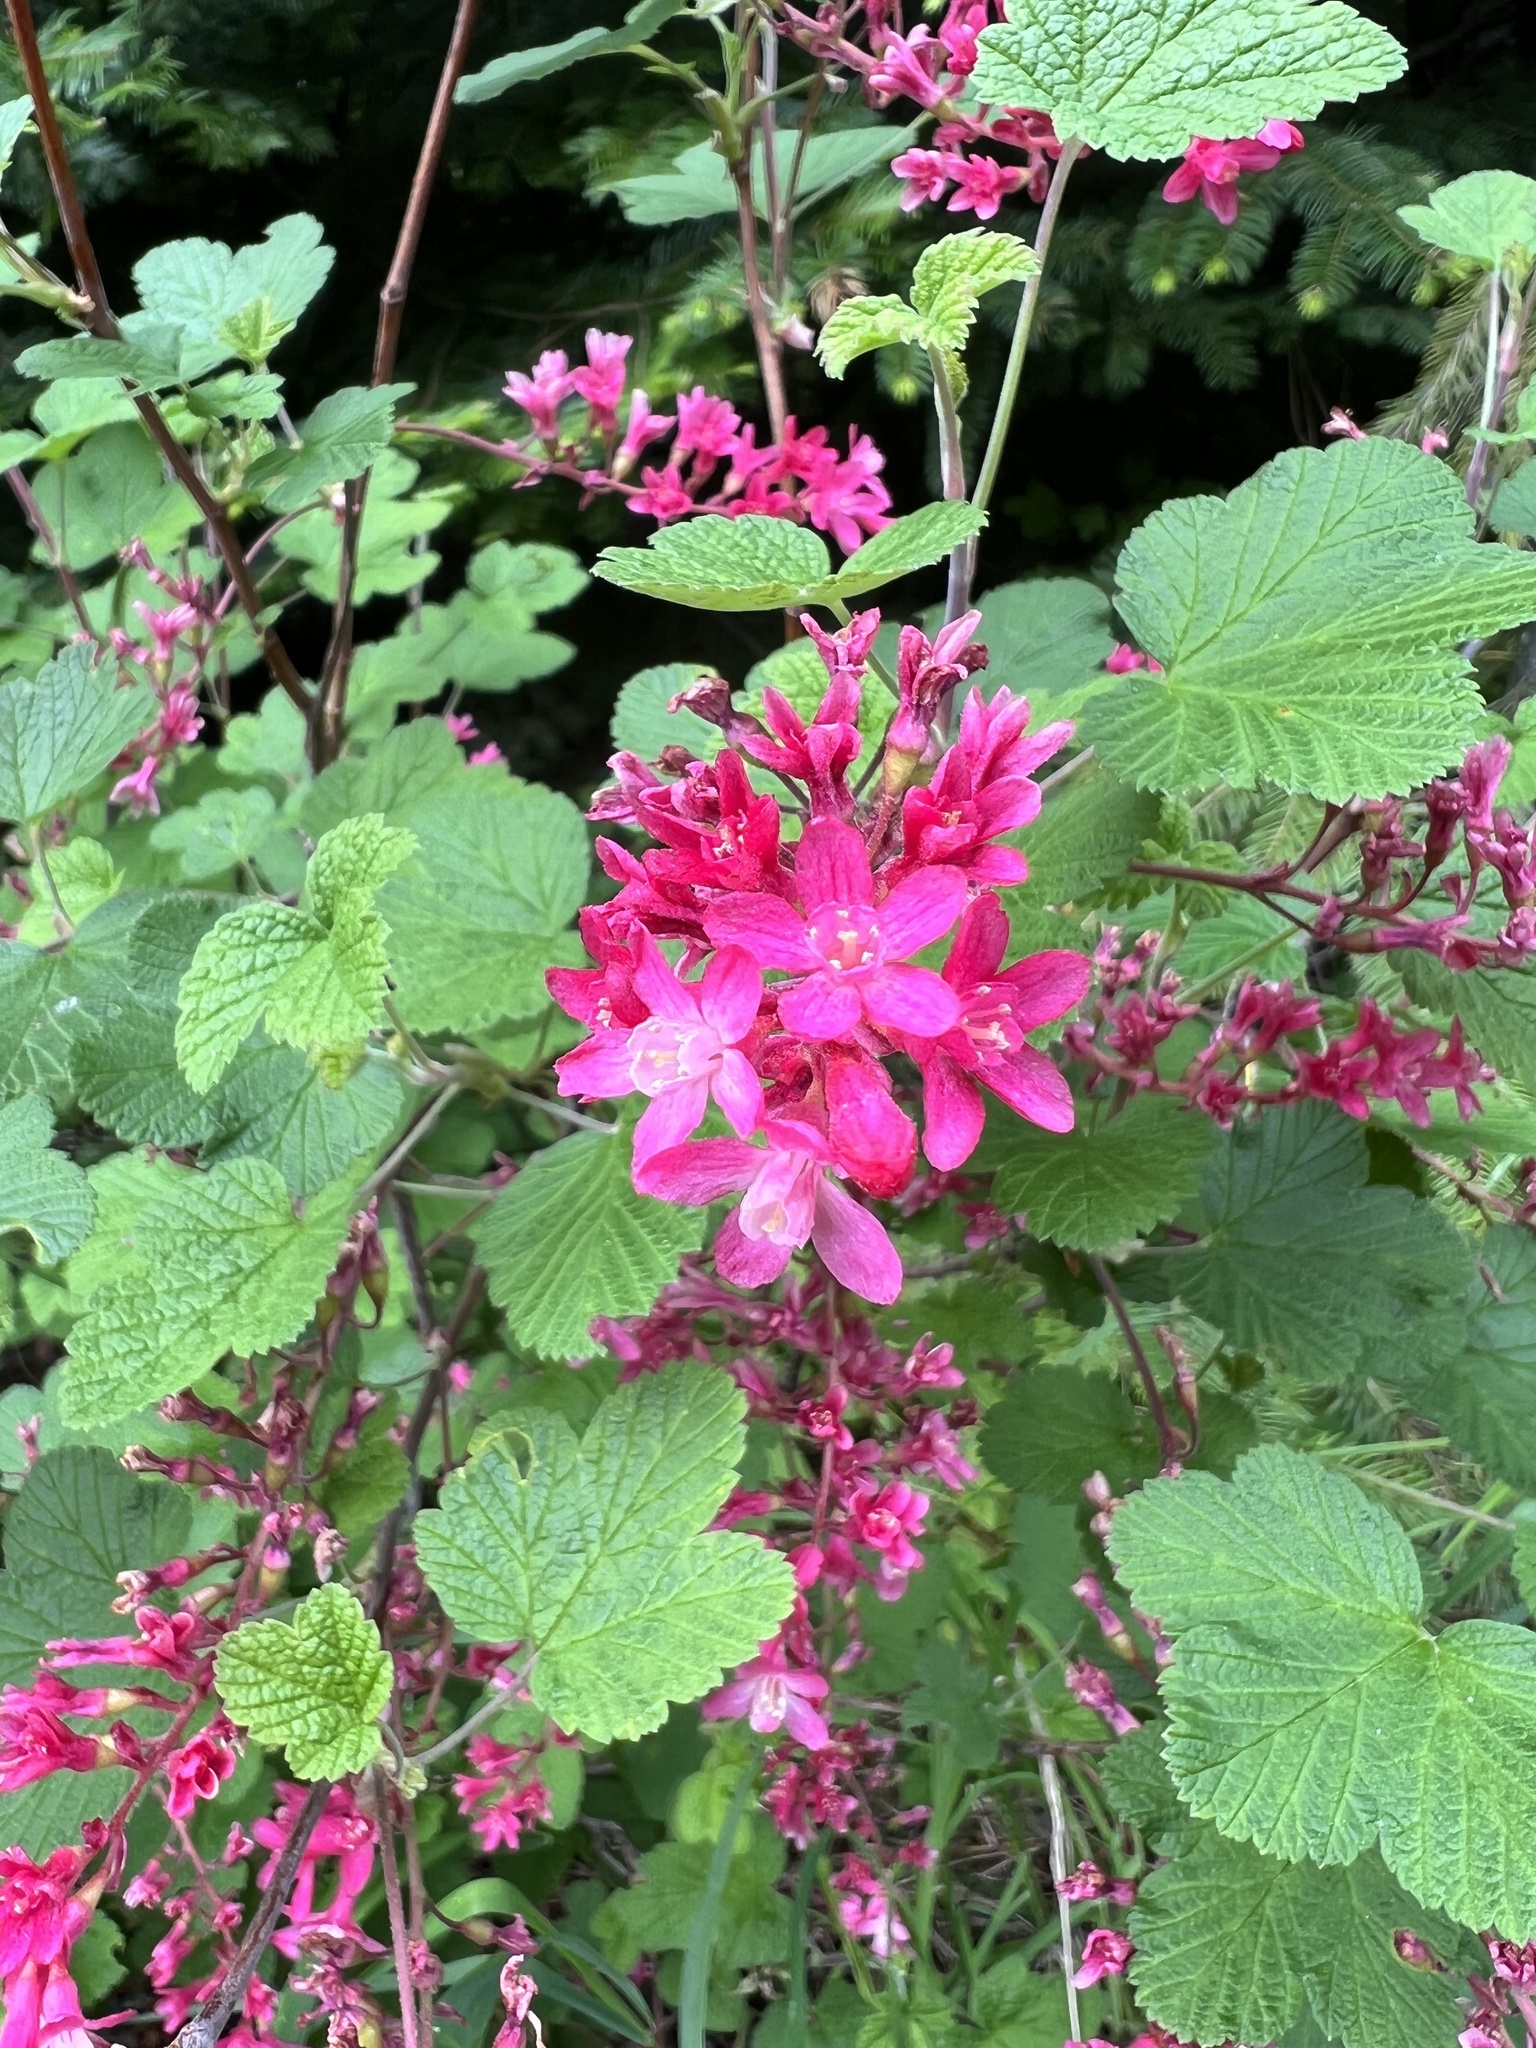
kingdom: Plantae
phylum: Tracheophyta
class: Magnoliopsida
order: Saxifragales
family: Grossulariaceae
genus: Ribes
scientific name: Ribes sanguineum
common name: Flowering currant
